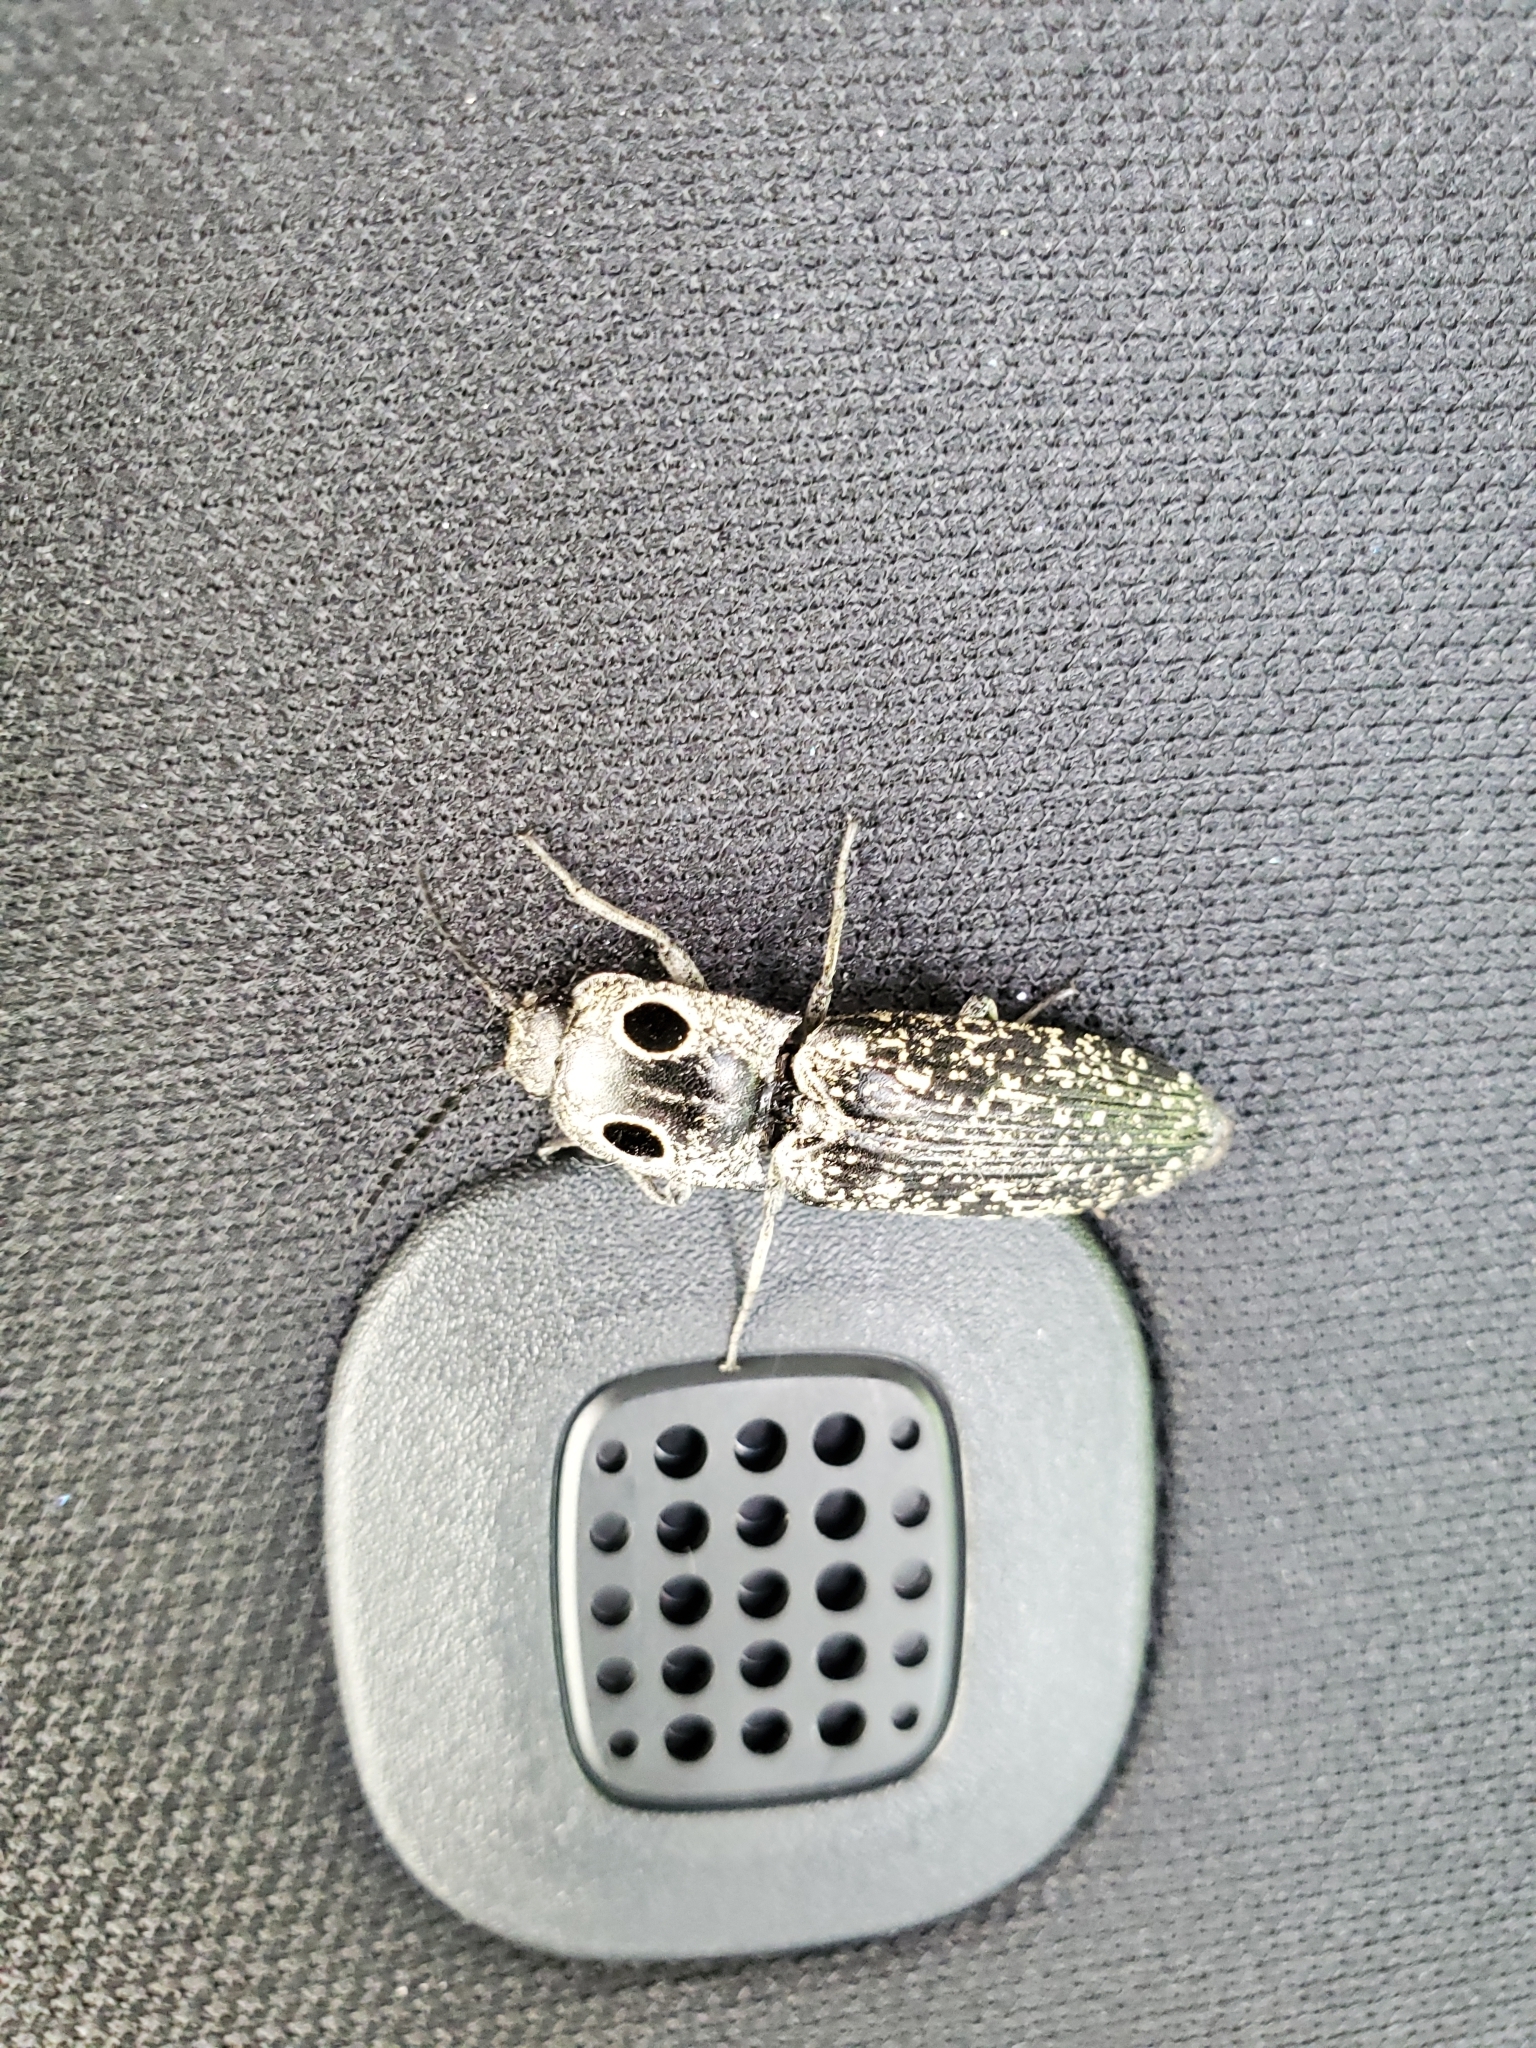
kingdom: Animalia
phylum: Arthropoda
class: Insecta
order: Coleoptera
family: Elateridae
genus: Alaus
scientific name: Alaus oculatus
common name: Eastern eyed click beetle
